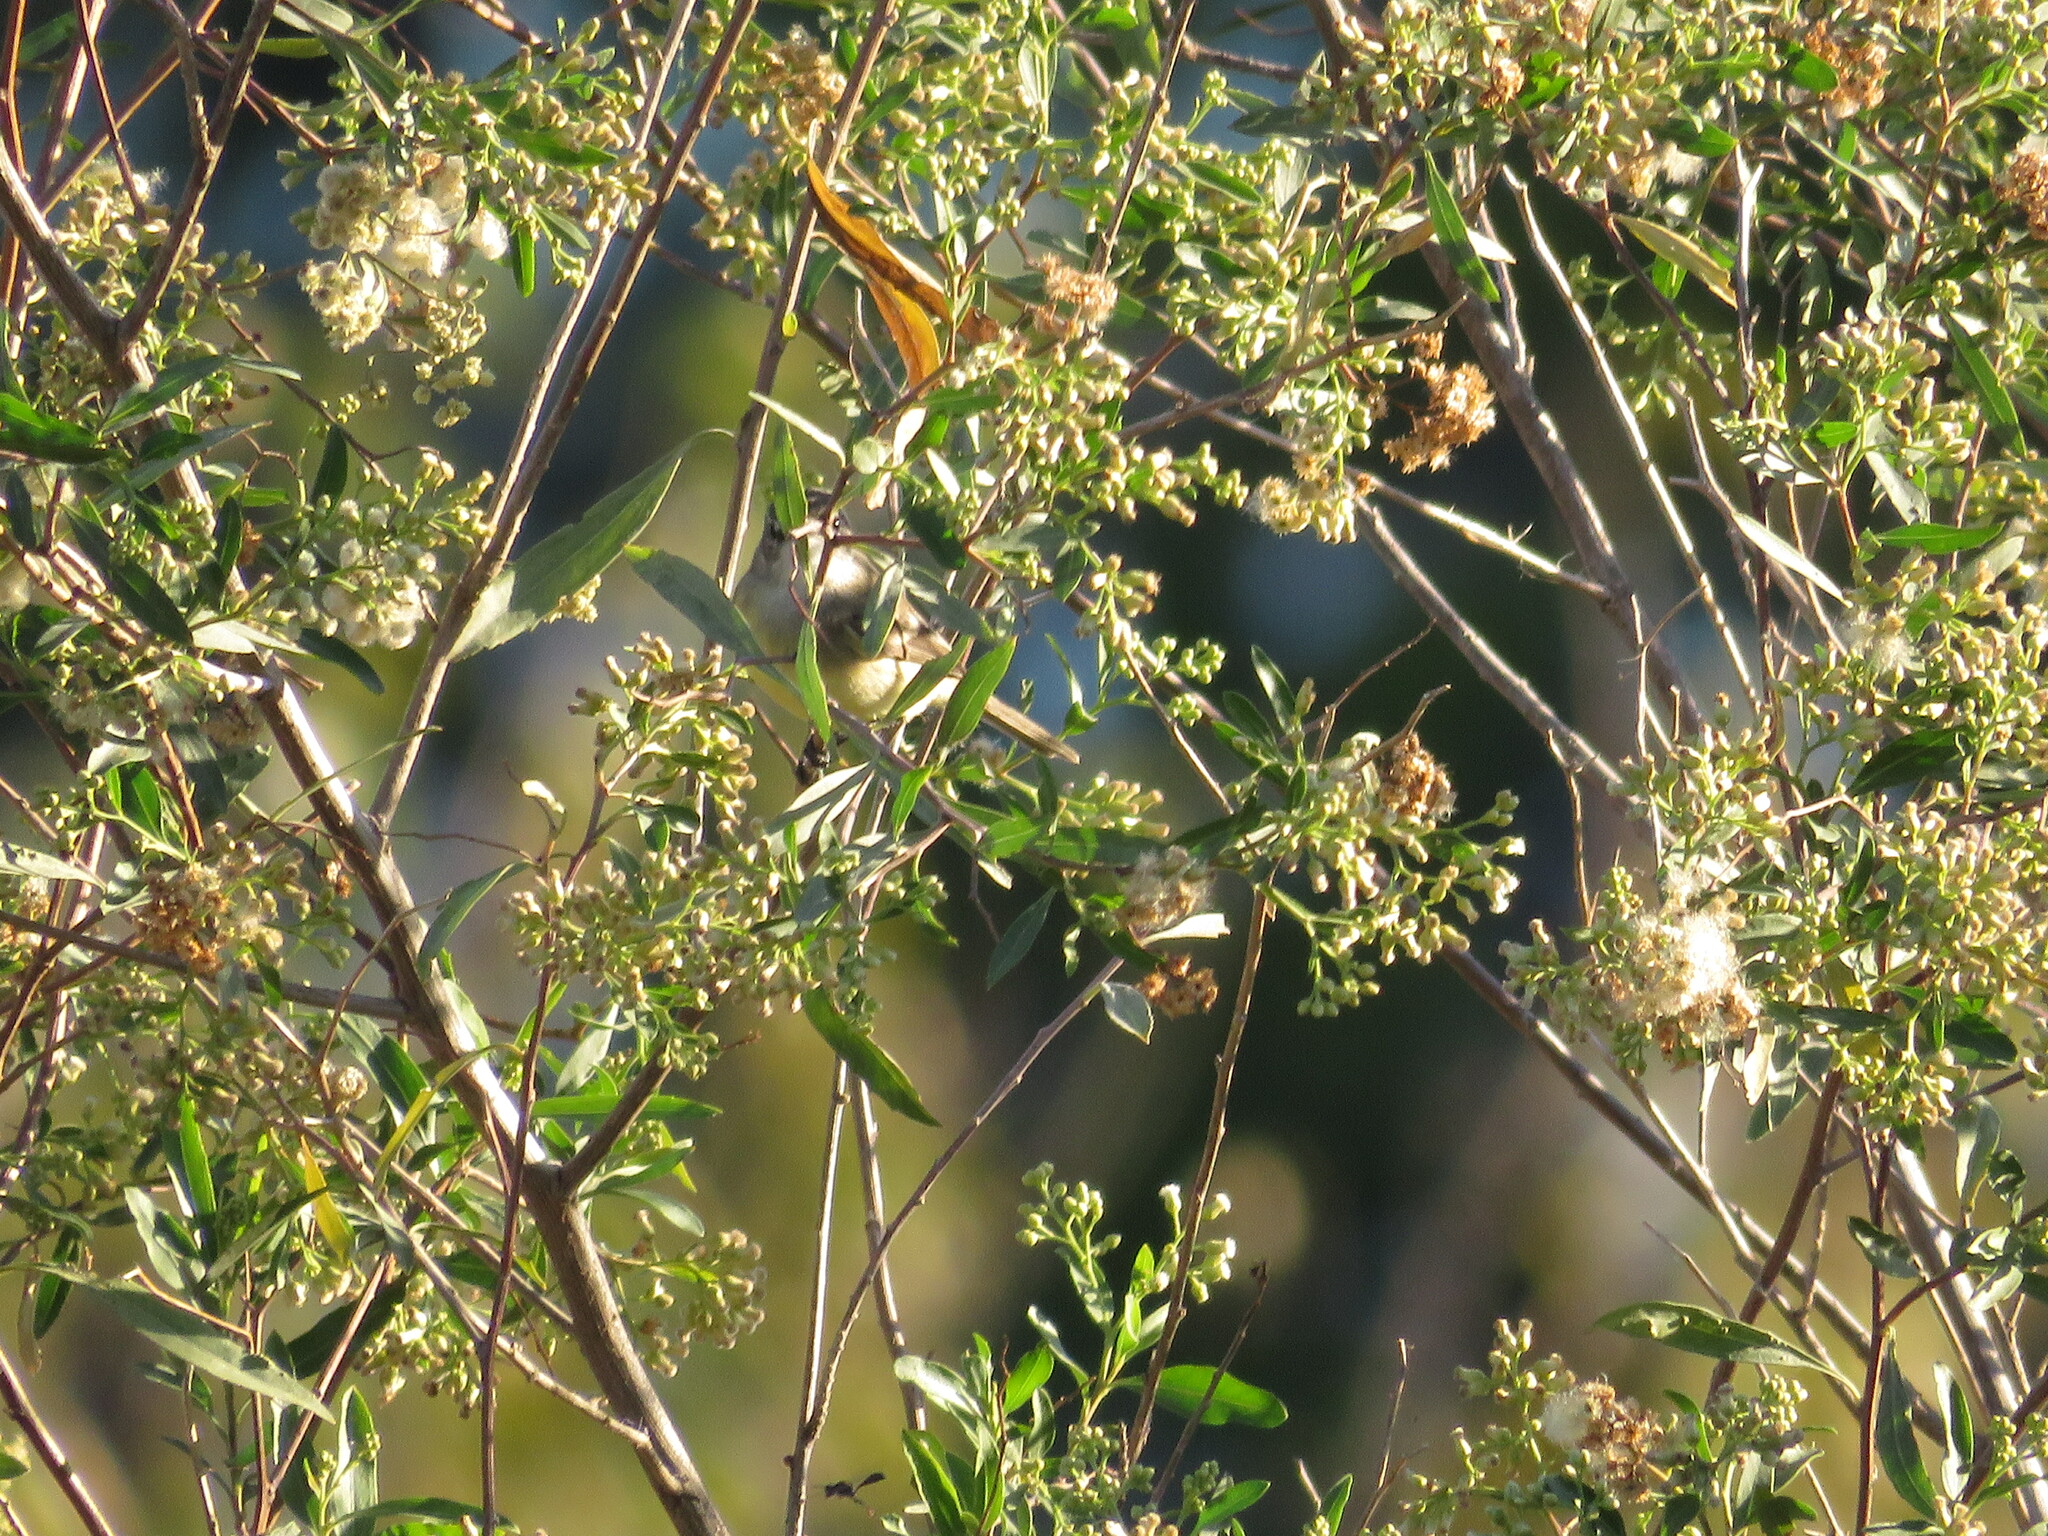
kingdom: Animalia
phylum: Chordata
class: Aves
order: Passeriformes
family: Tyrannidae
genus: Serpophaga
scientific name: Serpophaga griseicapilla
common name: Straneck's tyrannulet
